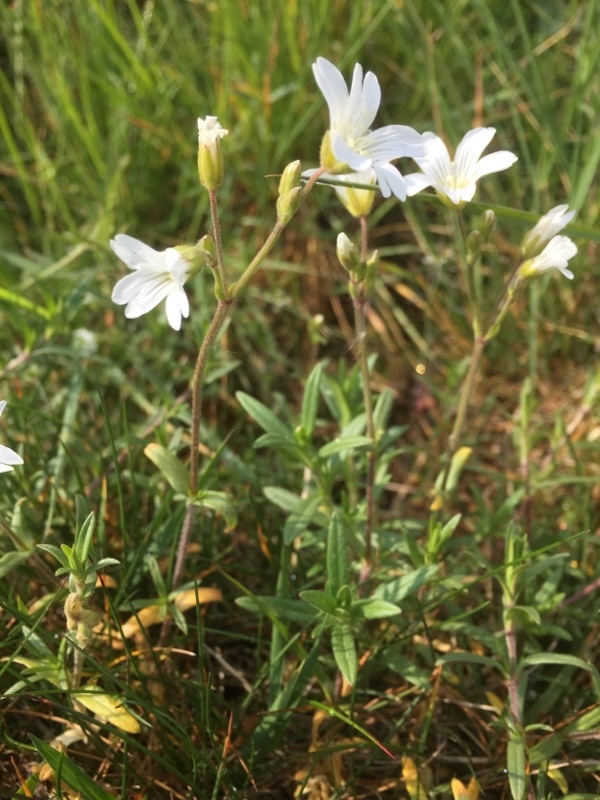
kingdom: Plantae
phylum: Tracheophyta
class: Magnoliopsida
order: Caryophyllales
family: Caryophyllaceae
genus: Cerastium
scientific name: Cerastium arvense
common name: Field mouse-ear
